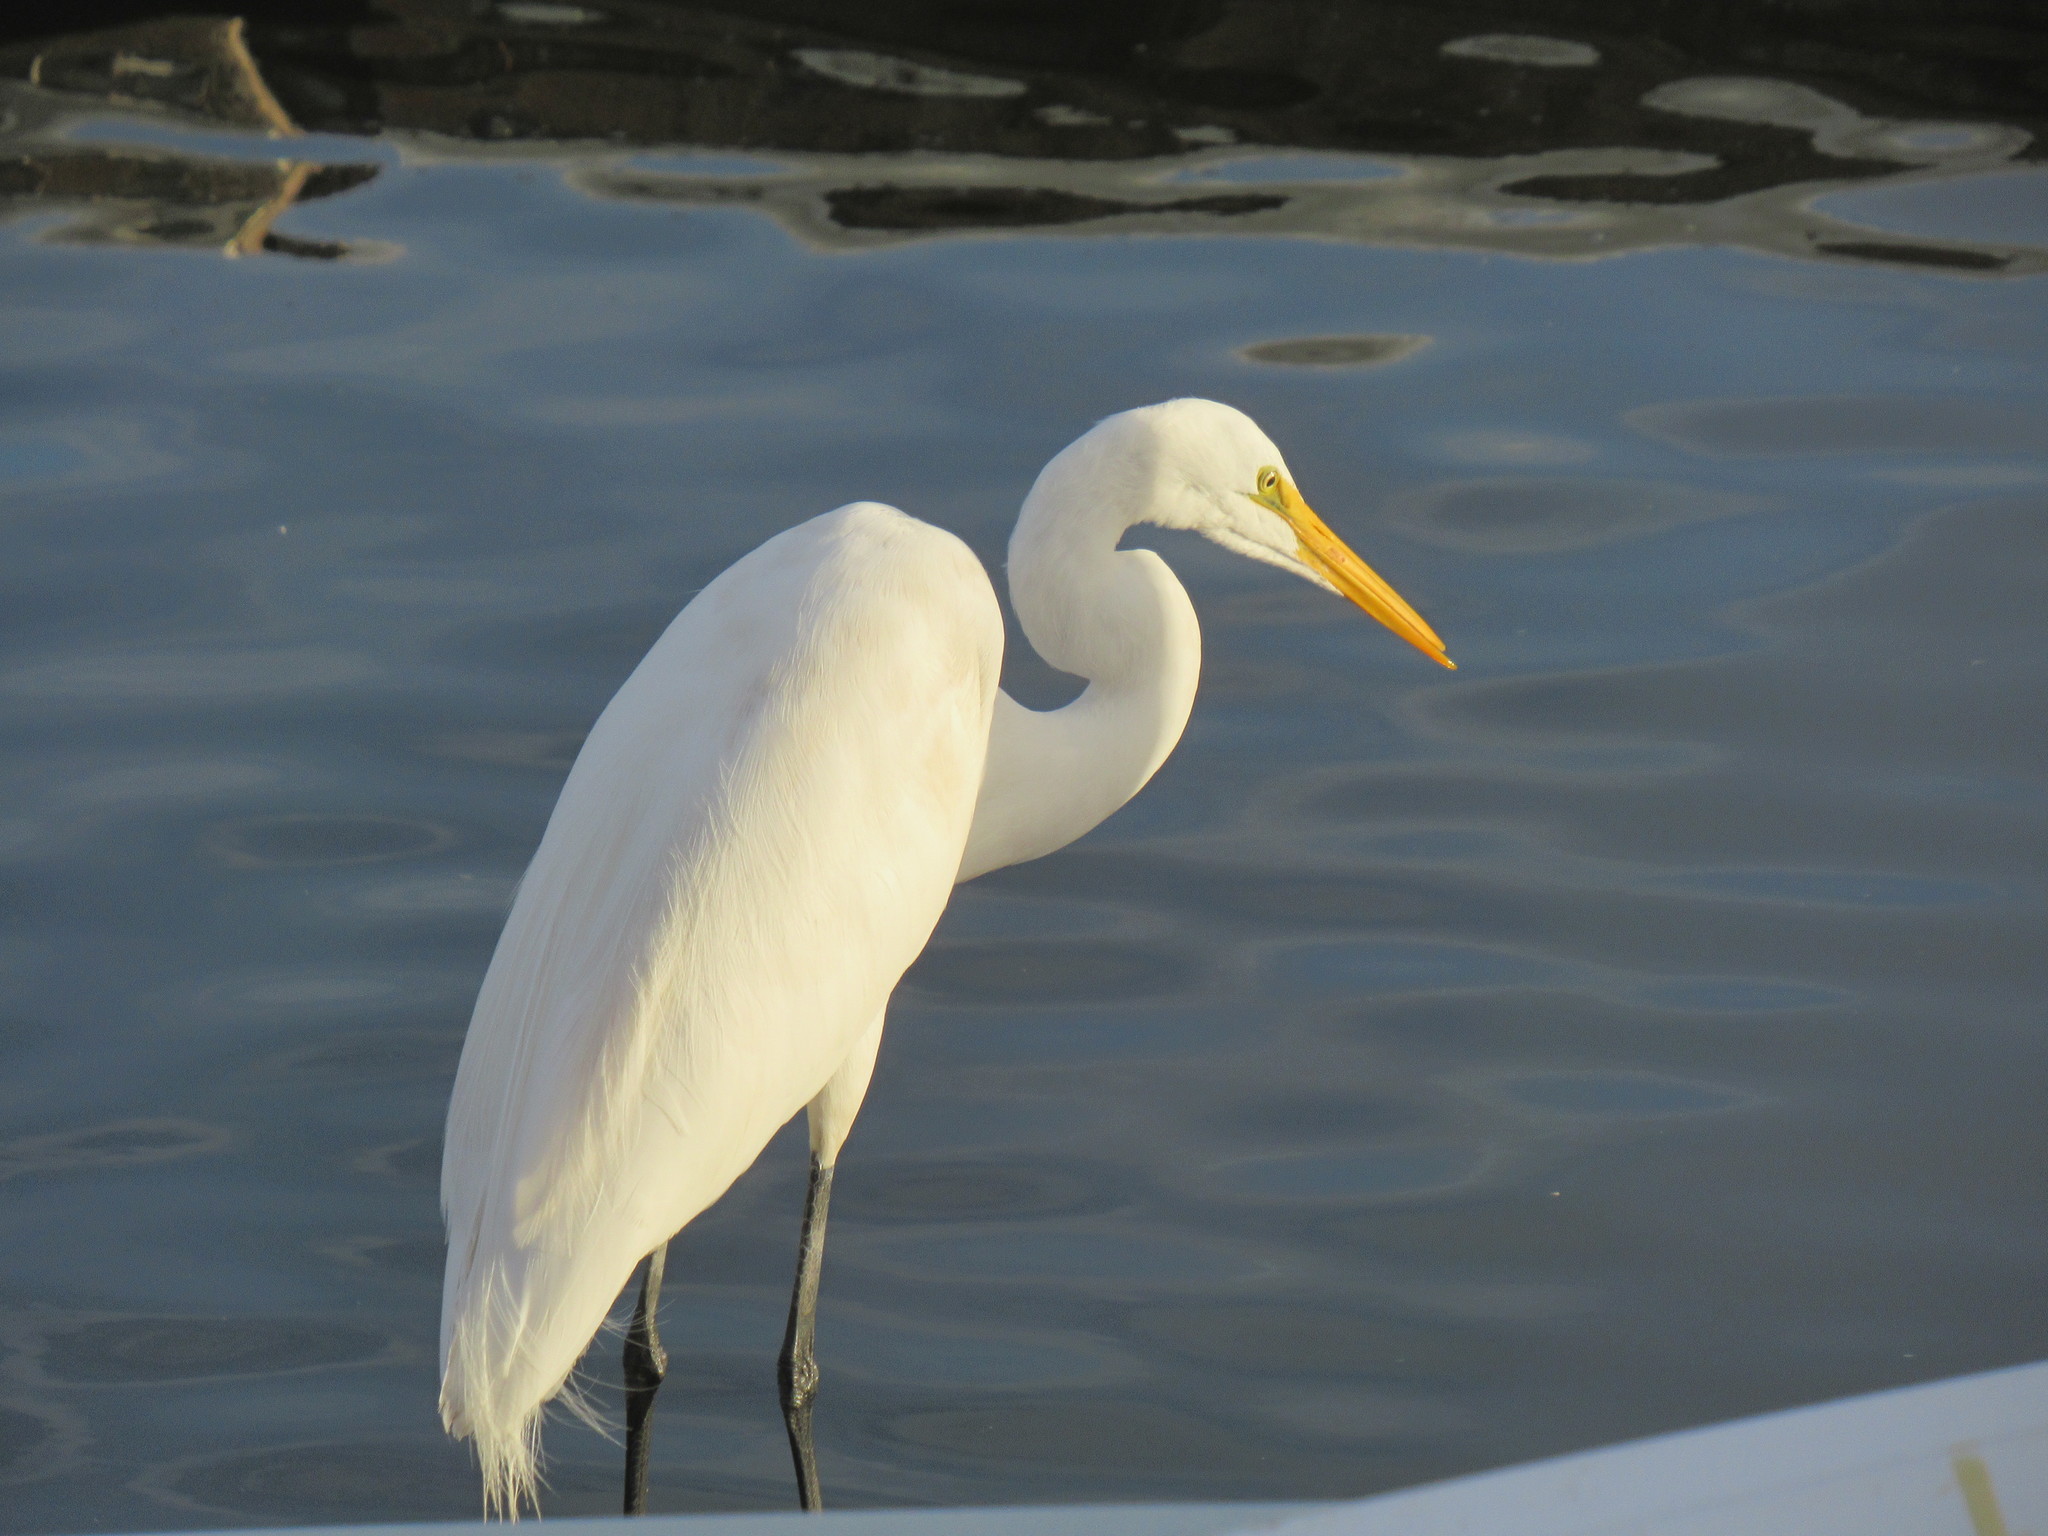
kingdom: Animalia
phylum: Chordata
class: Aves
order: Pelecaniformes
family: Ardeidae
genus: Ardea
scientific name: Ardea alba
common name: Great egret
